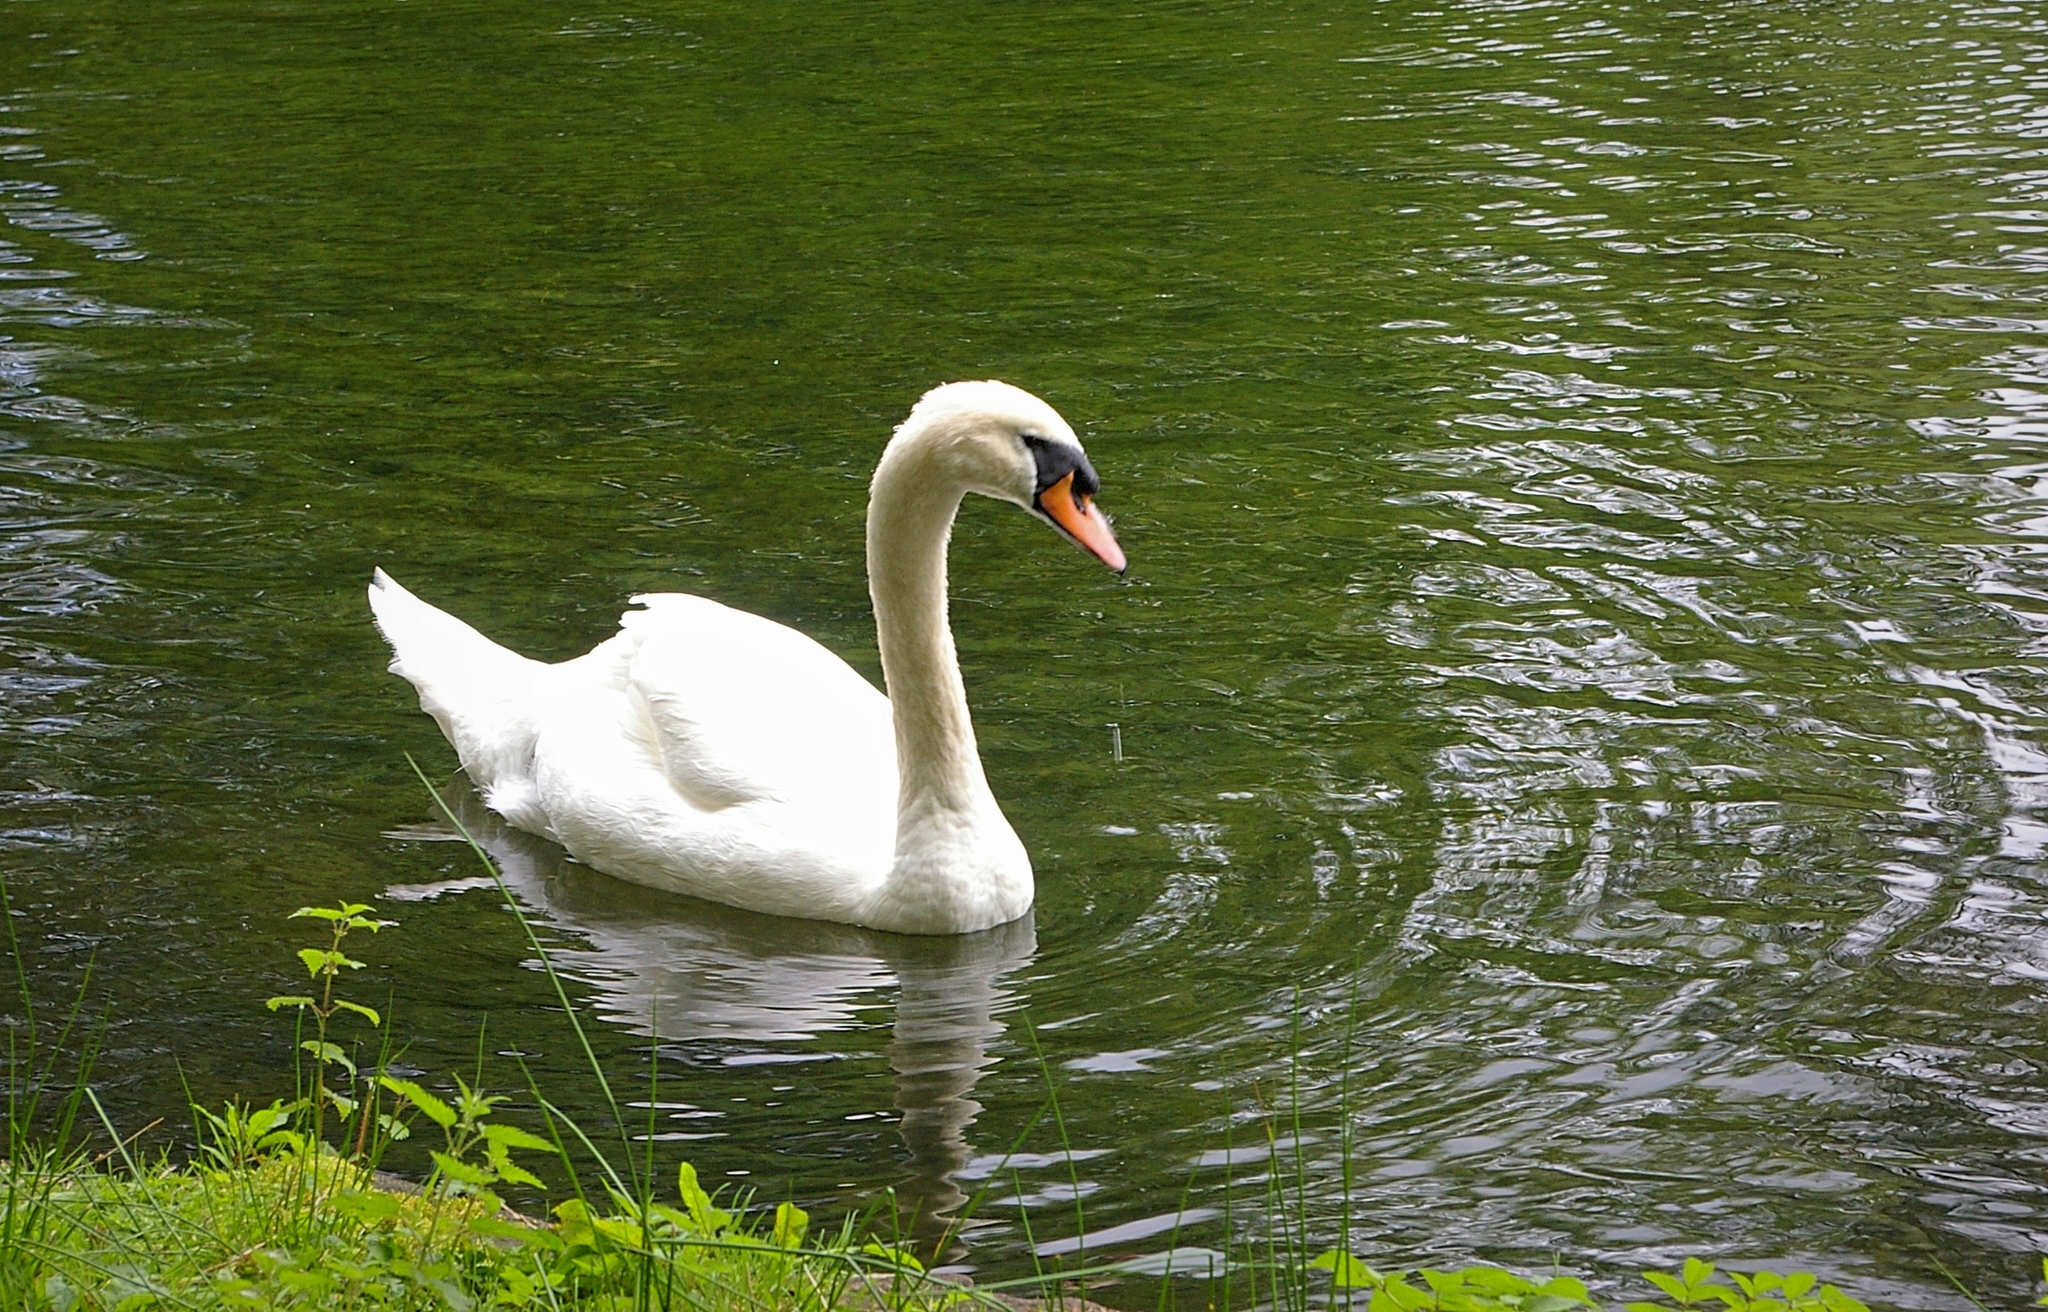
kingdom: Animalia
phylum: Chordata
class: Aves
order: Anseriformes
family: Anatidae
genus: Cygnus
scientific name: Cygnus olor
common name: Mute swan
